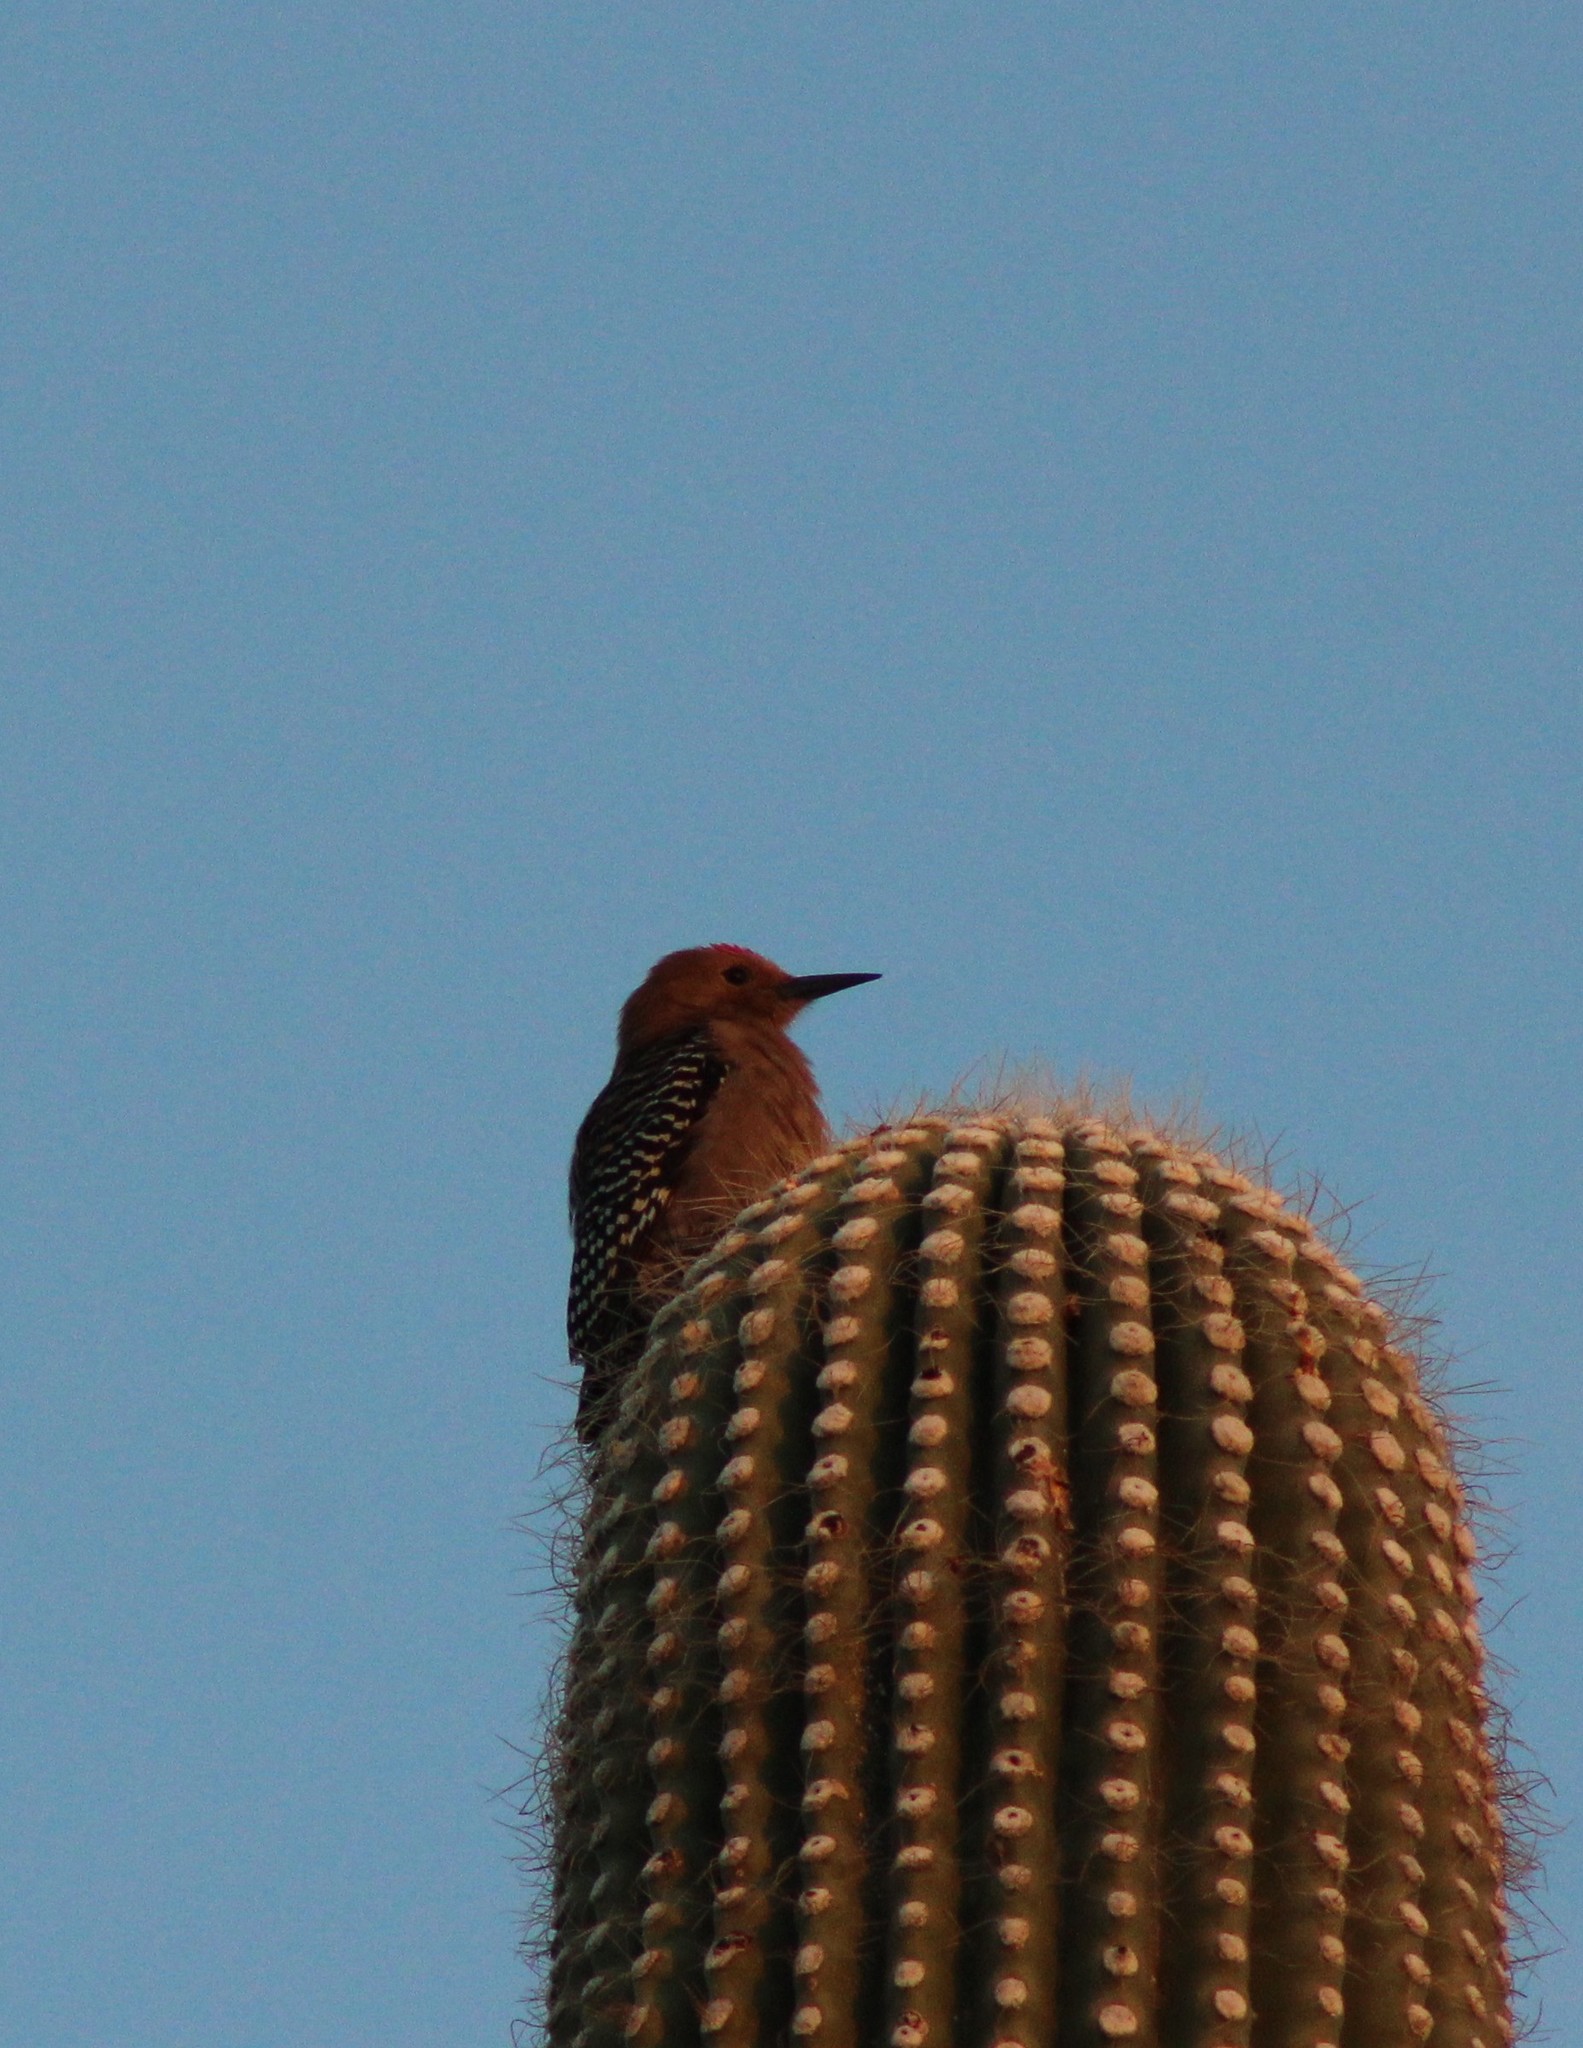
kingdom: Animalia
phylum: Chordata
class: Aves
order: Piciformes
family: Picidae
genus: Melanerpes
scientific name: Melanerpes uropygialis
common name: Gila woodpecker
